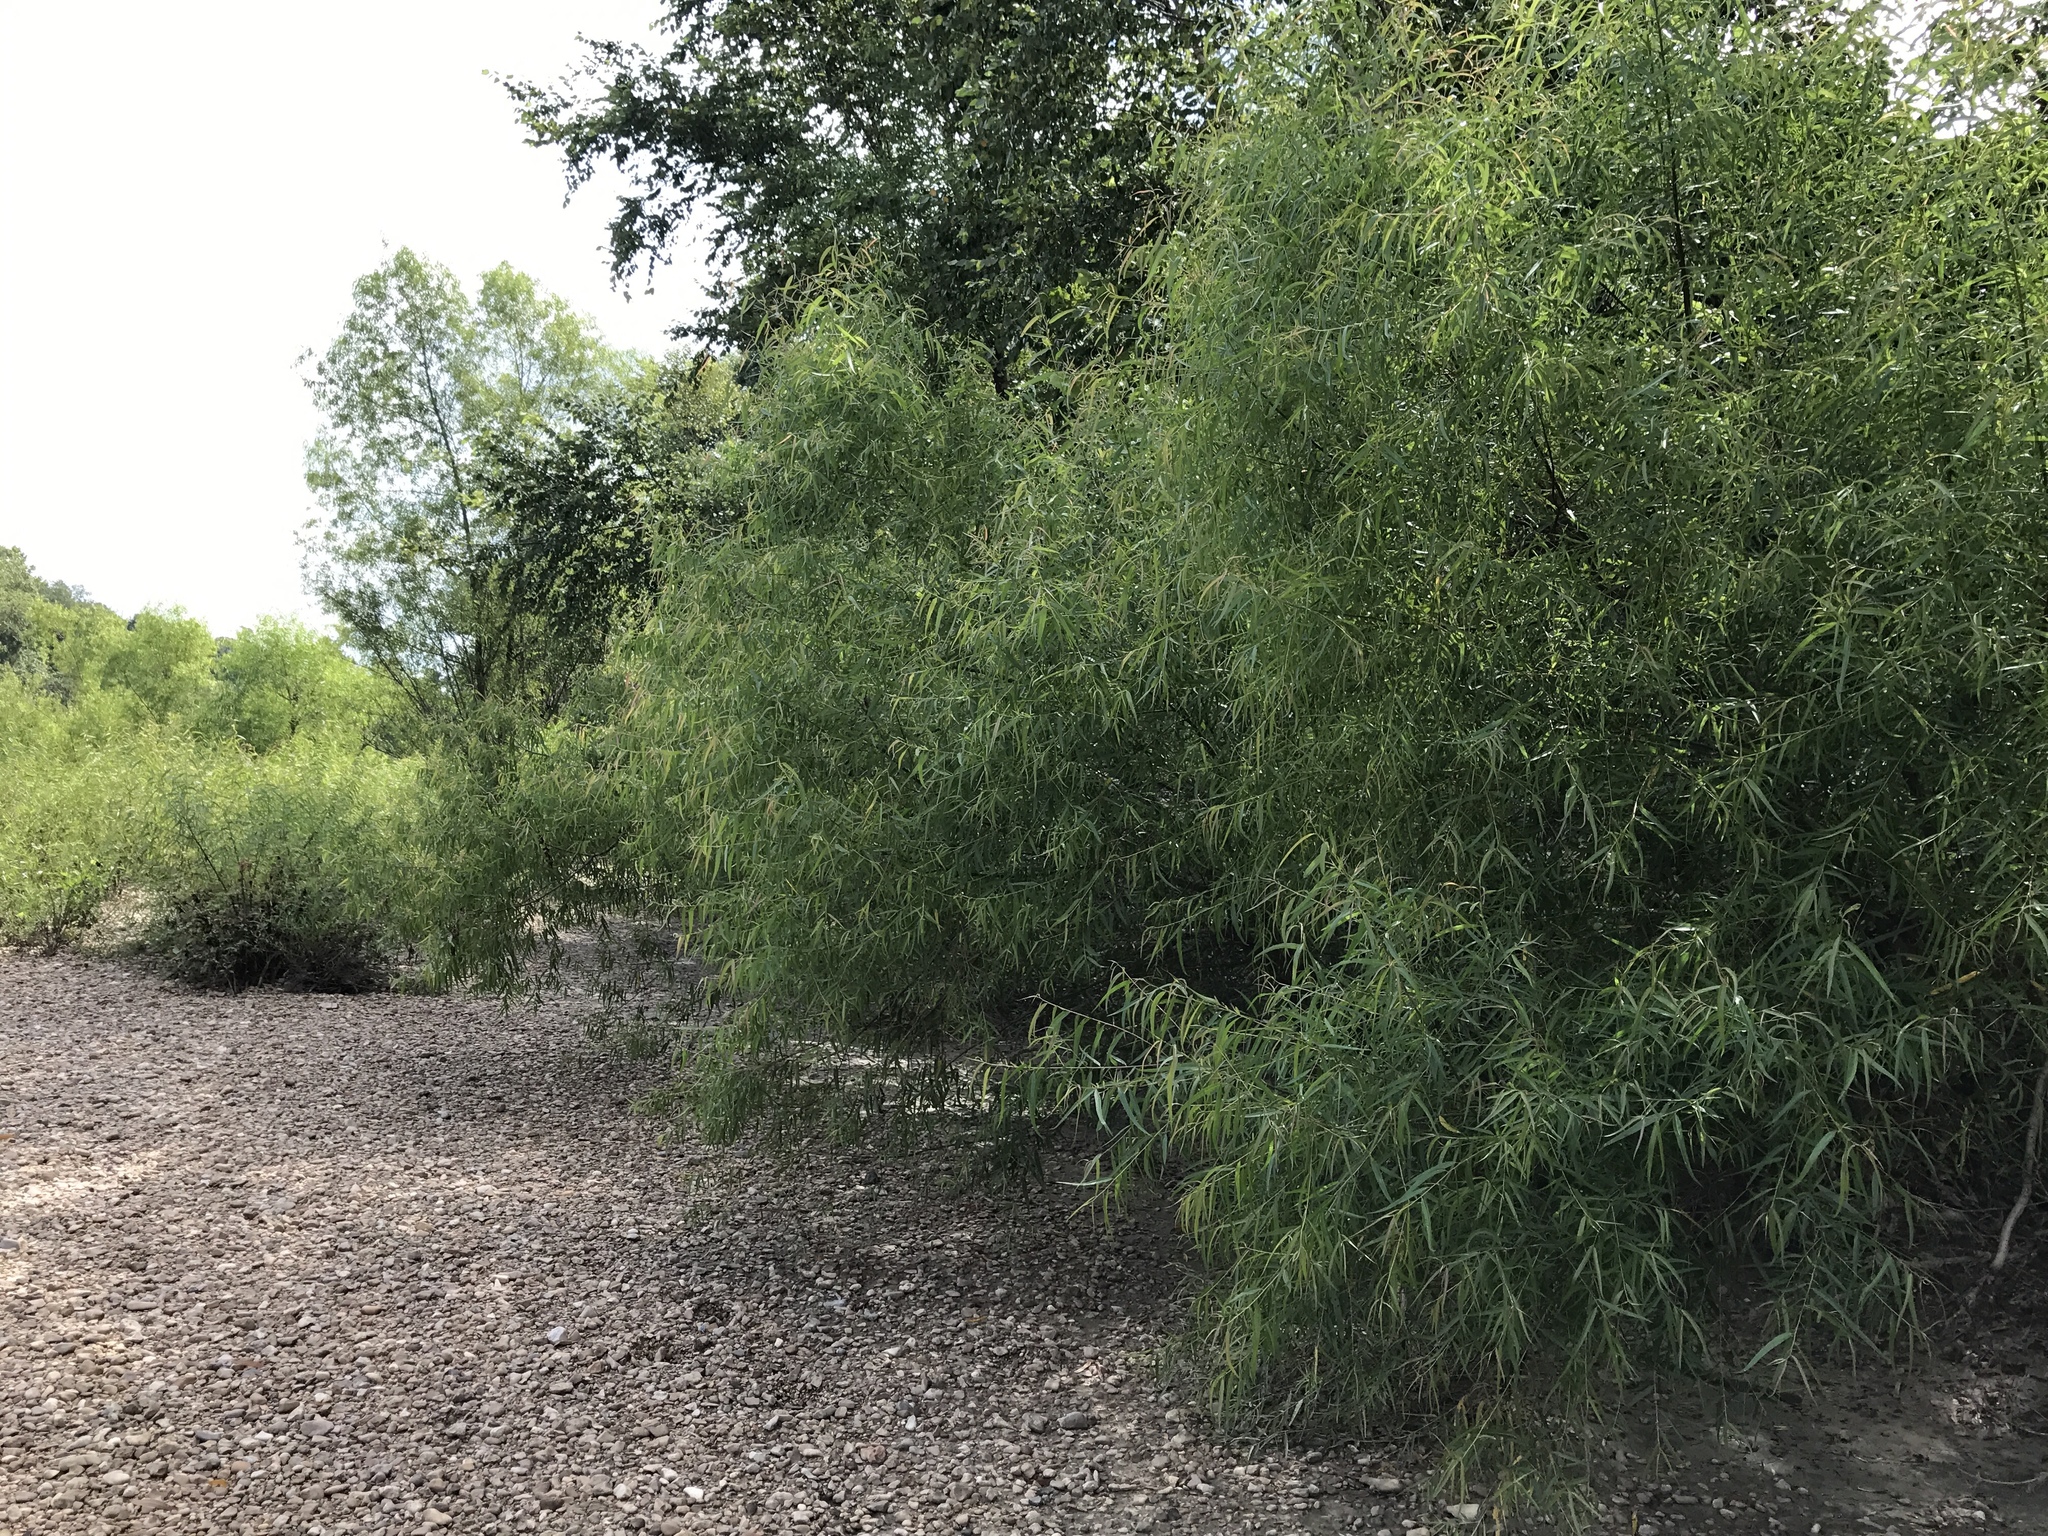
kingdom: Plantae
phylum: Tracheophyta
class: Magnoliopsida
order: Malpighiales
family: Salicaceae
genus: Salix
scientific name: Salix nigra
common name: Black willow
